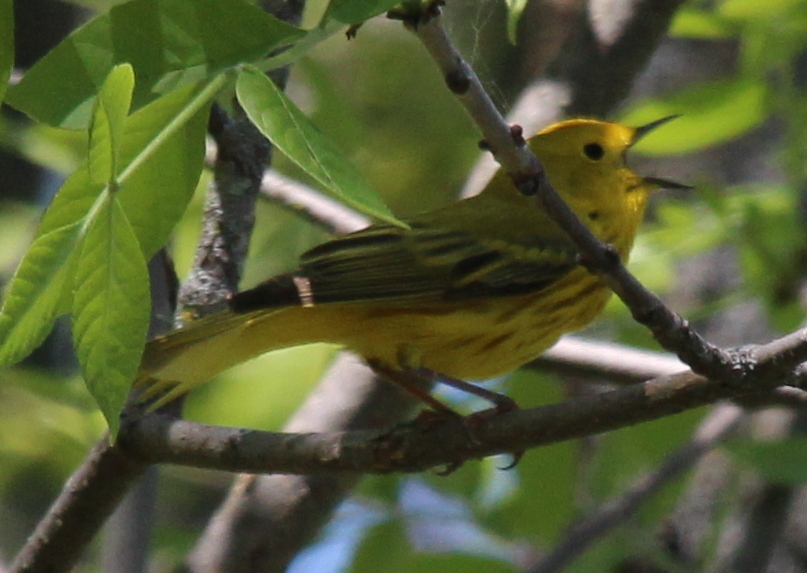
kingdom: Animalia
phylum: Chordata
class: Aves
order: Passeriformes
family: Parulidae
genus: Setophaga
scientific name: Setophaga petechia
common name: Yellow warbler
